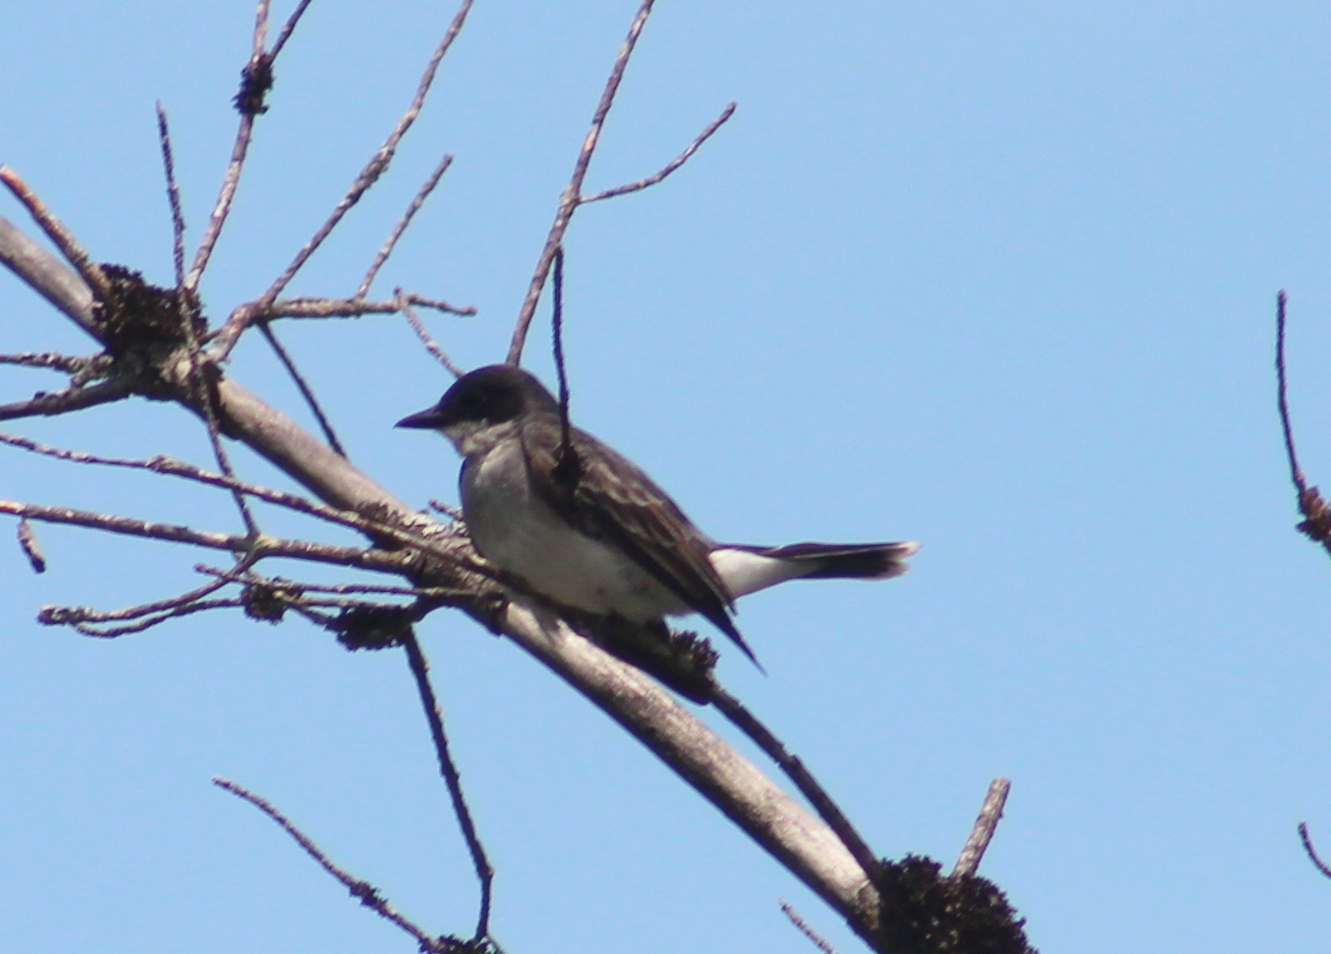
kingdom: Animalia
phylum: Chordata
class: Aves
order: Passeriformes
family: Tyrannidae
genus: Tyrannus
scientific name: Tyrannus tyrannus
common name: Eastern kingbird
